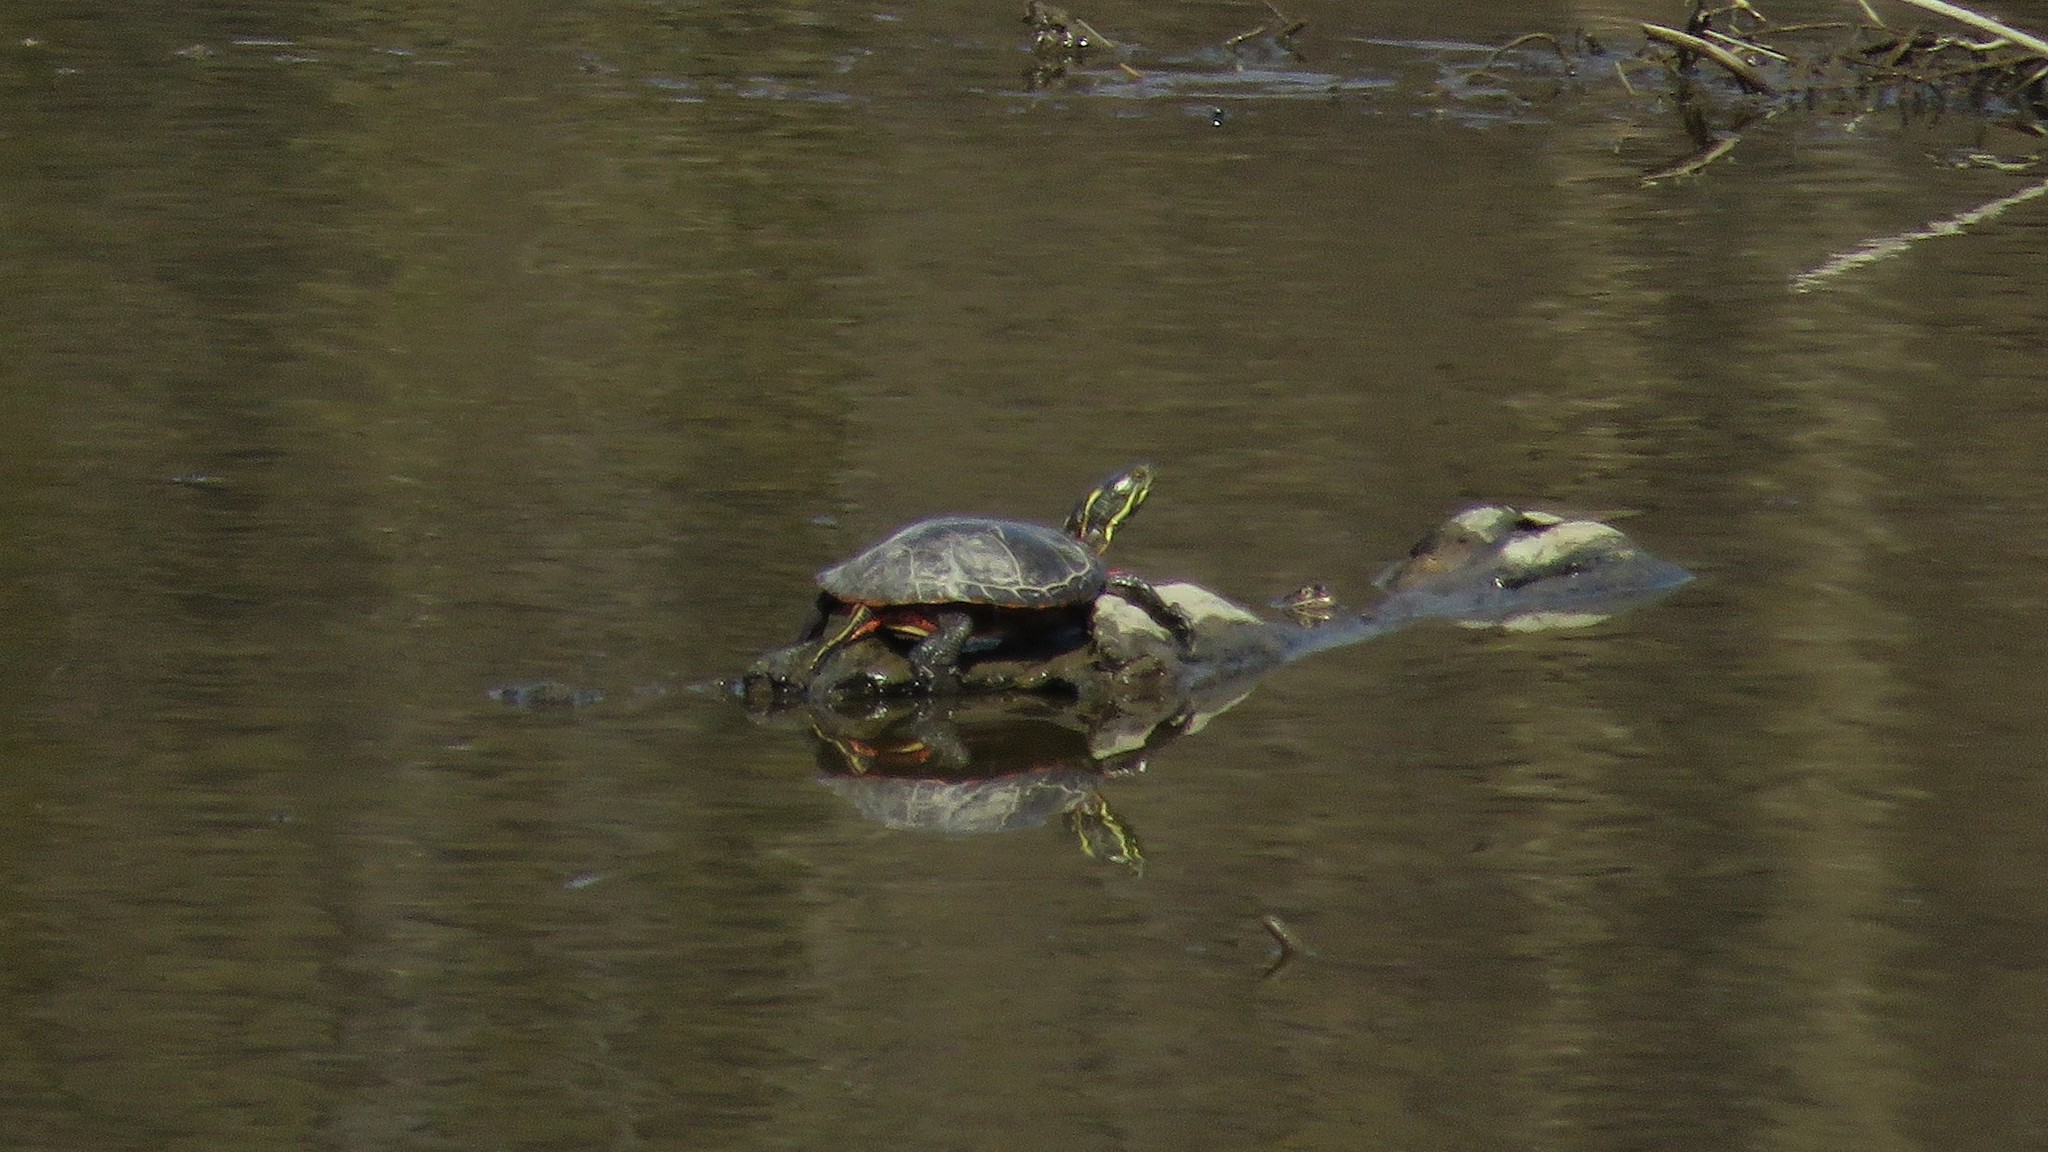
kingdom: Animalia
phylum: Chordata
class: Testudines
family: Emydidae
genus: Chrysemys
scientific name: Chrysemys picta
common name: Painted turtle
